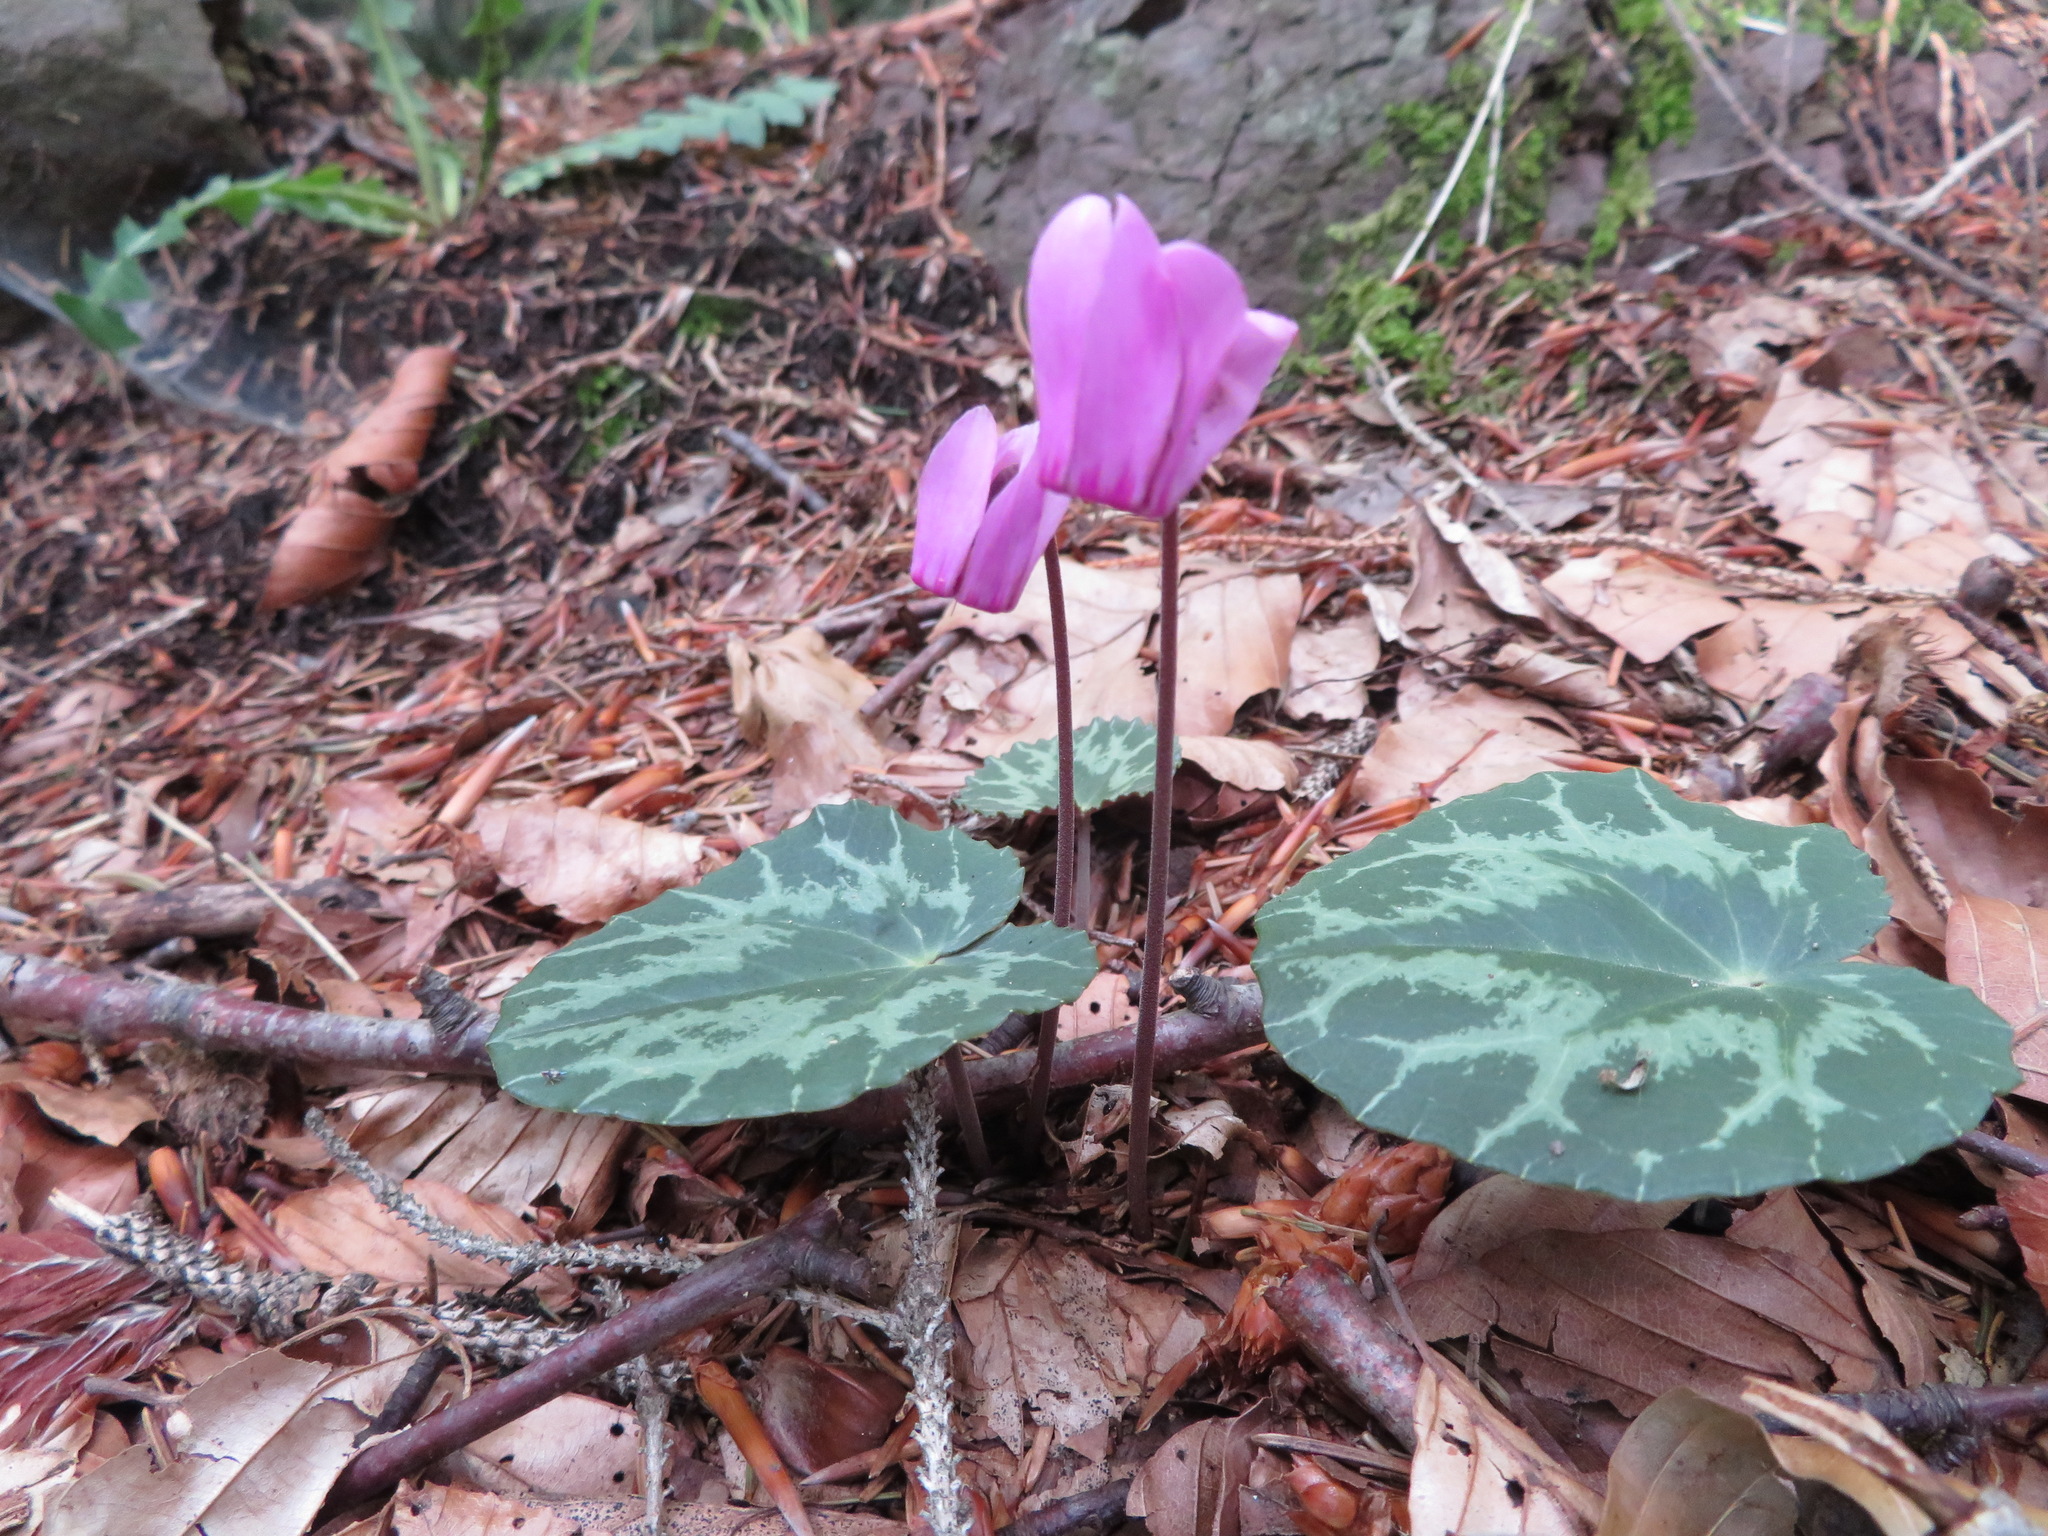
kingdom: Plantae
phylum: Tracheophyta
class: Magnoliopsida
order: Ericales
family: Primulaceae
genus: Cyclamen
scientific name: Cyclamen purpurascens
